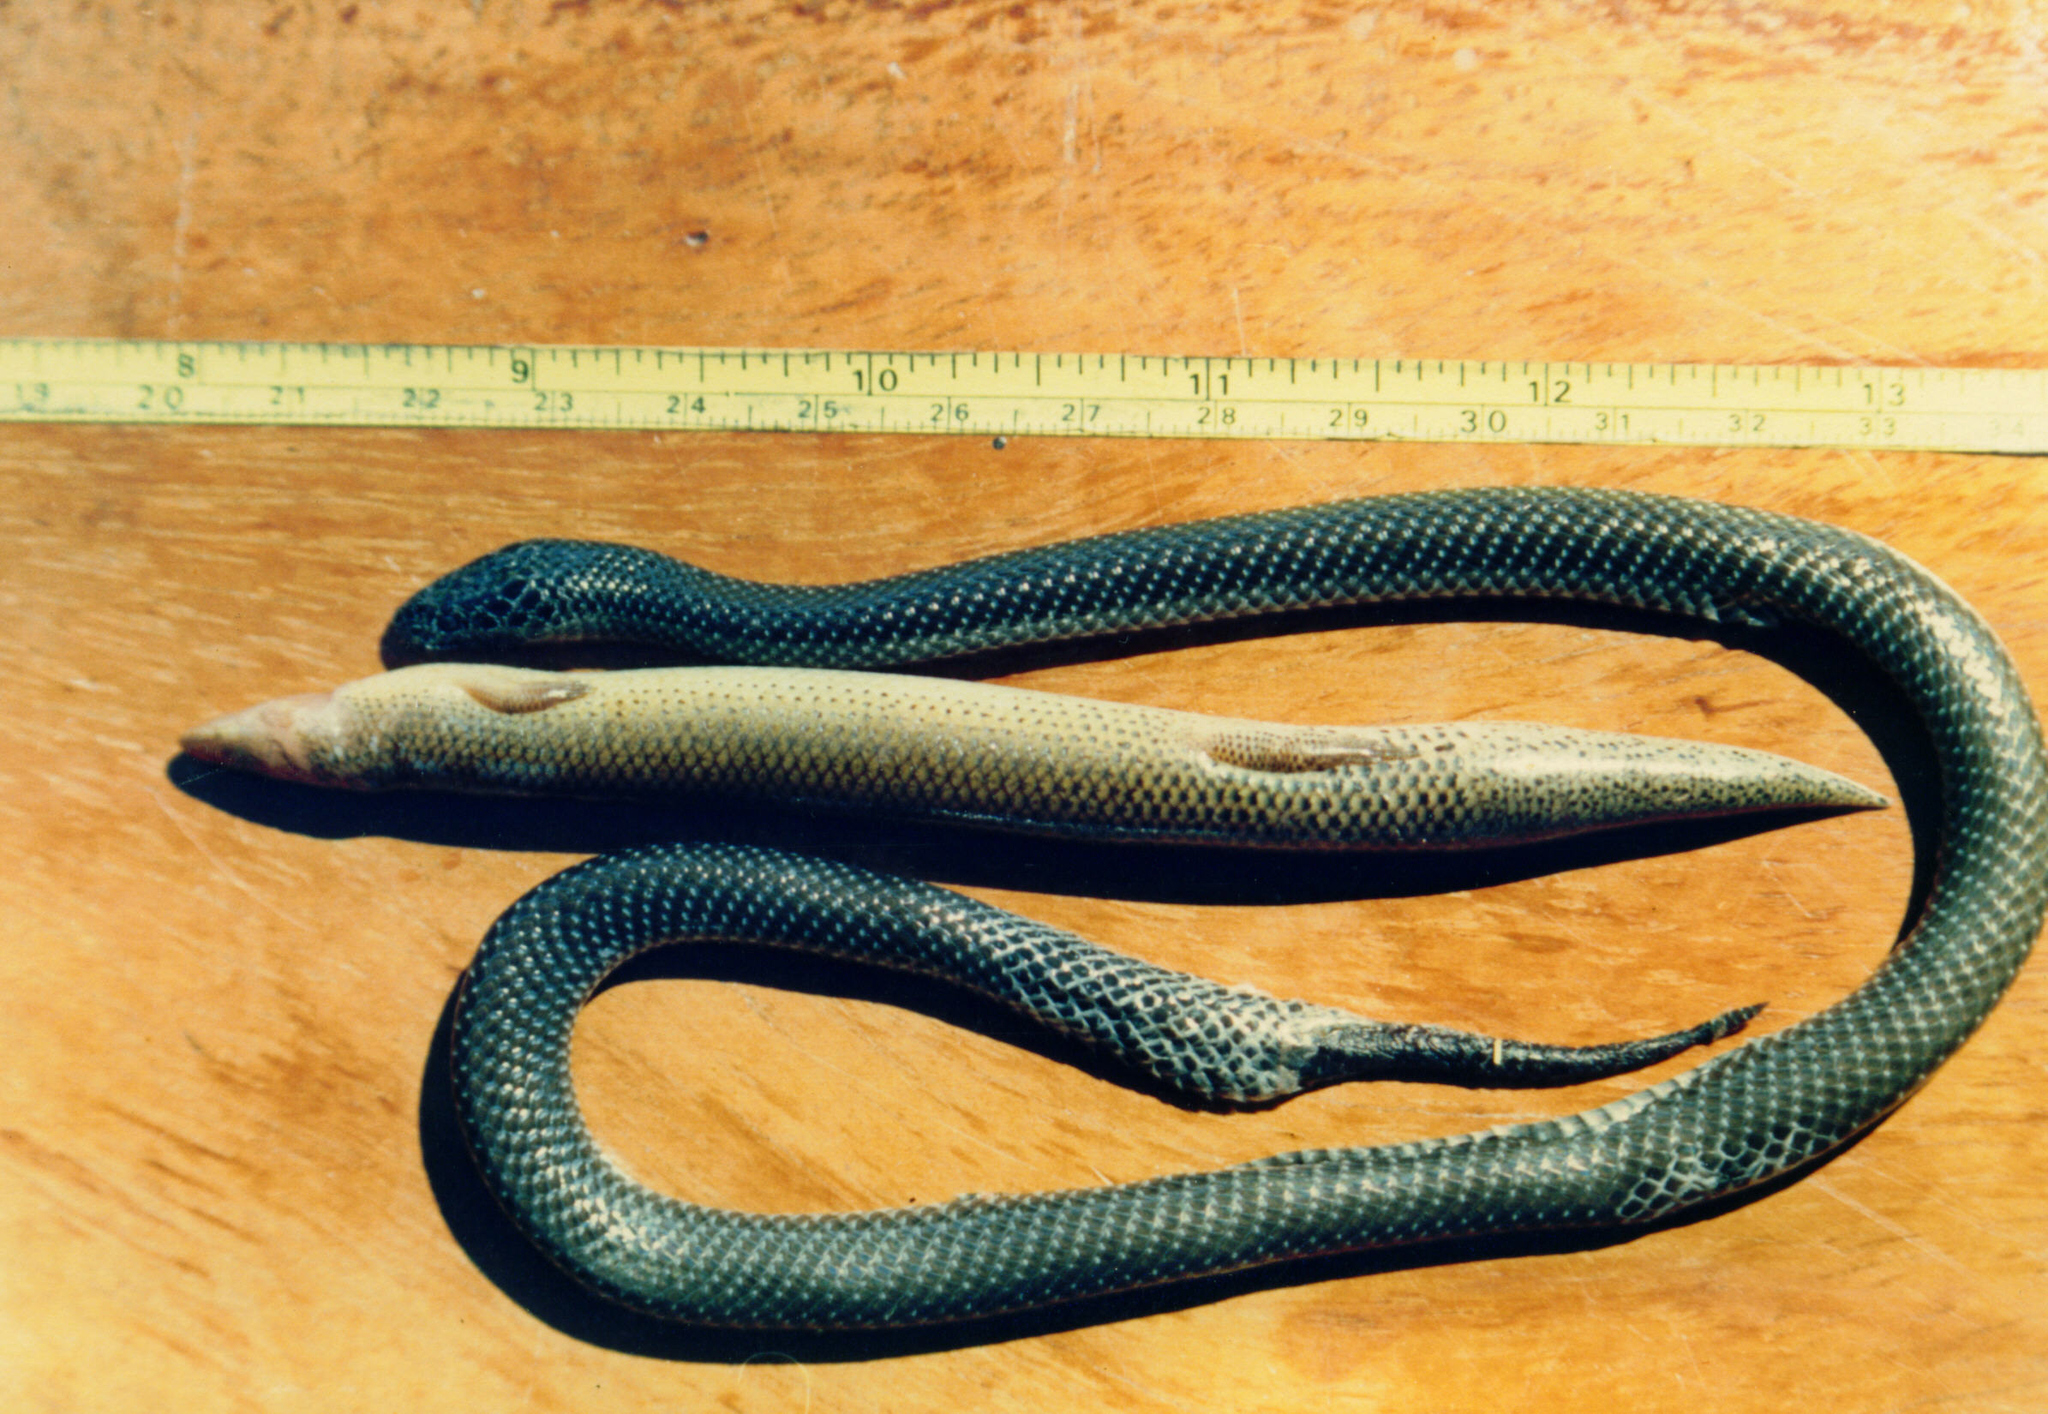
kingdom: Animalia
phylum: Chordata
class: Squamata
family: Scincidae
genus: Mochlus
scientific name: Mochlus sundevallii
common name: Peters' eyelid skink
